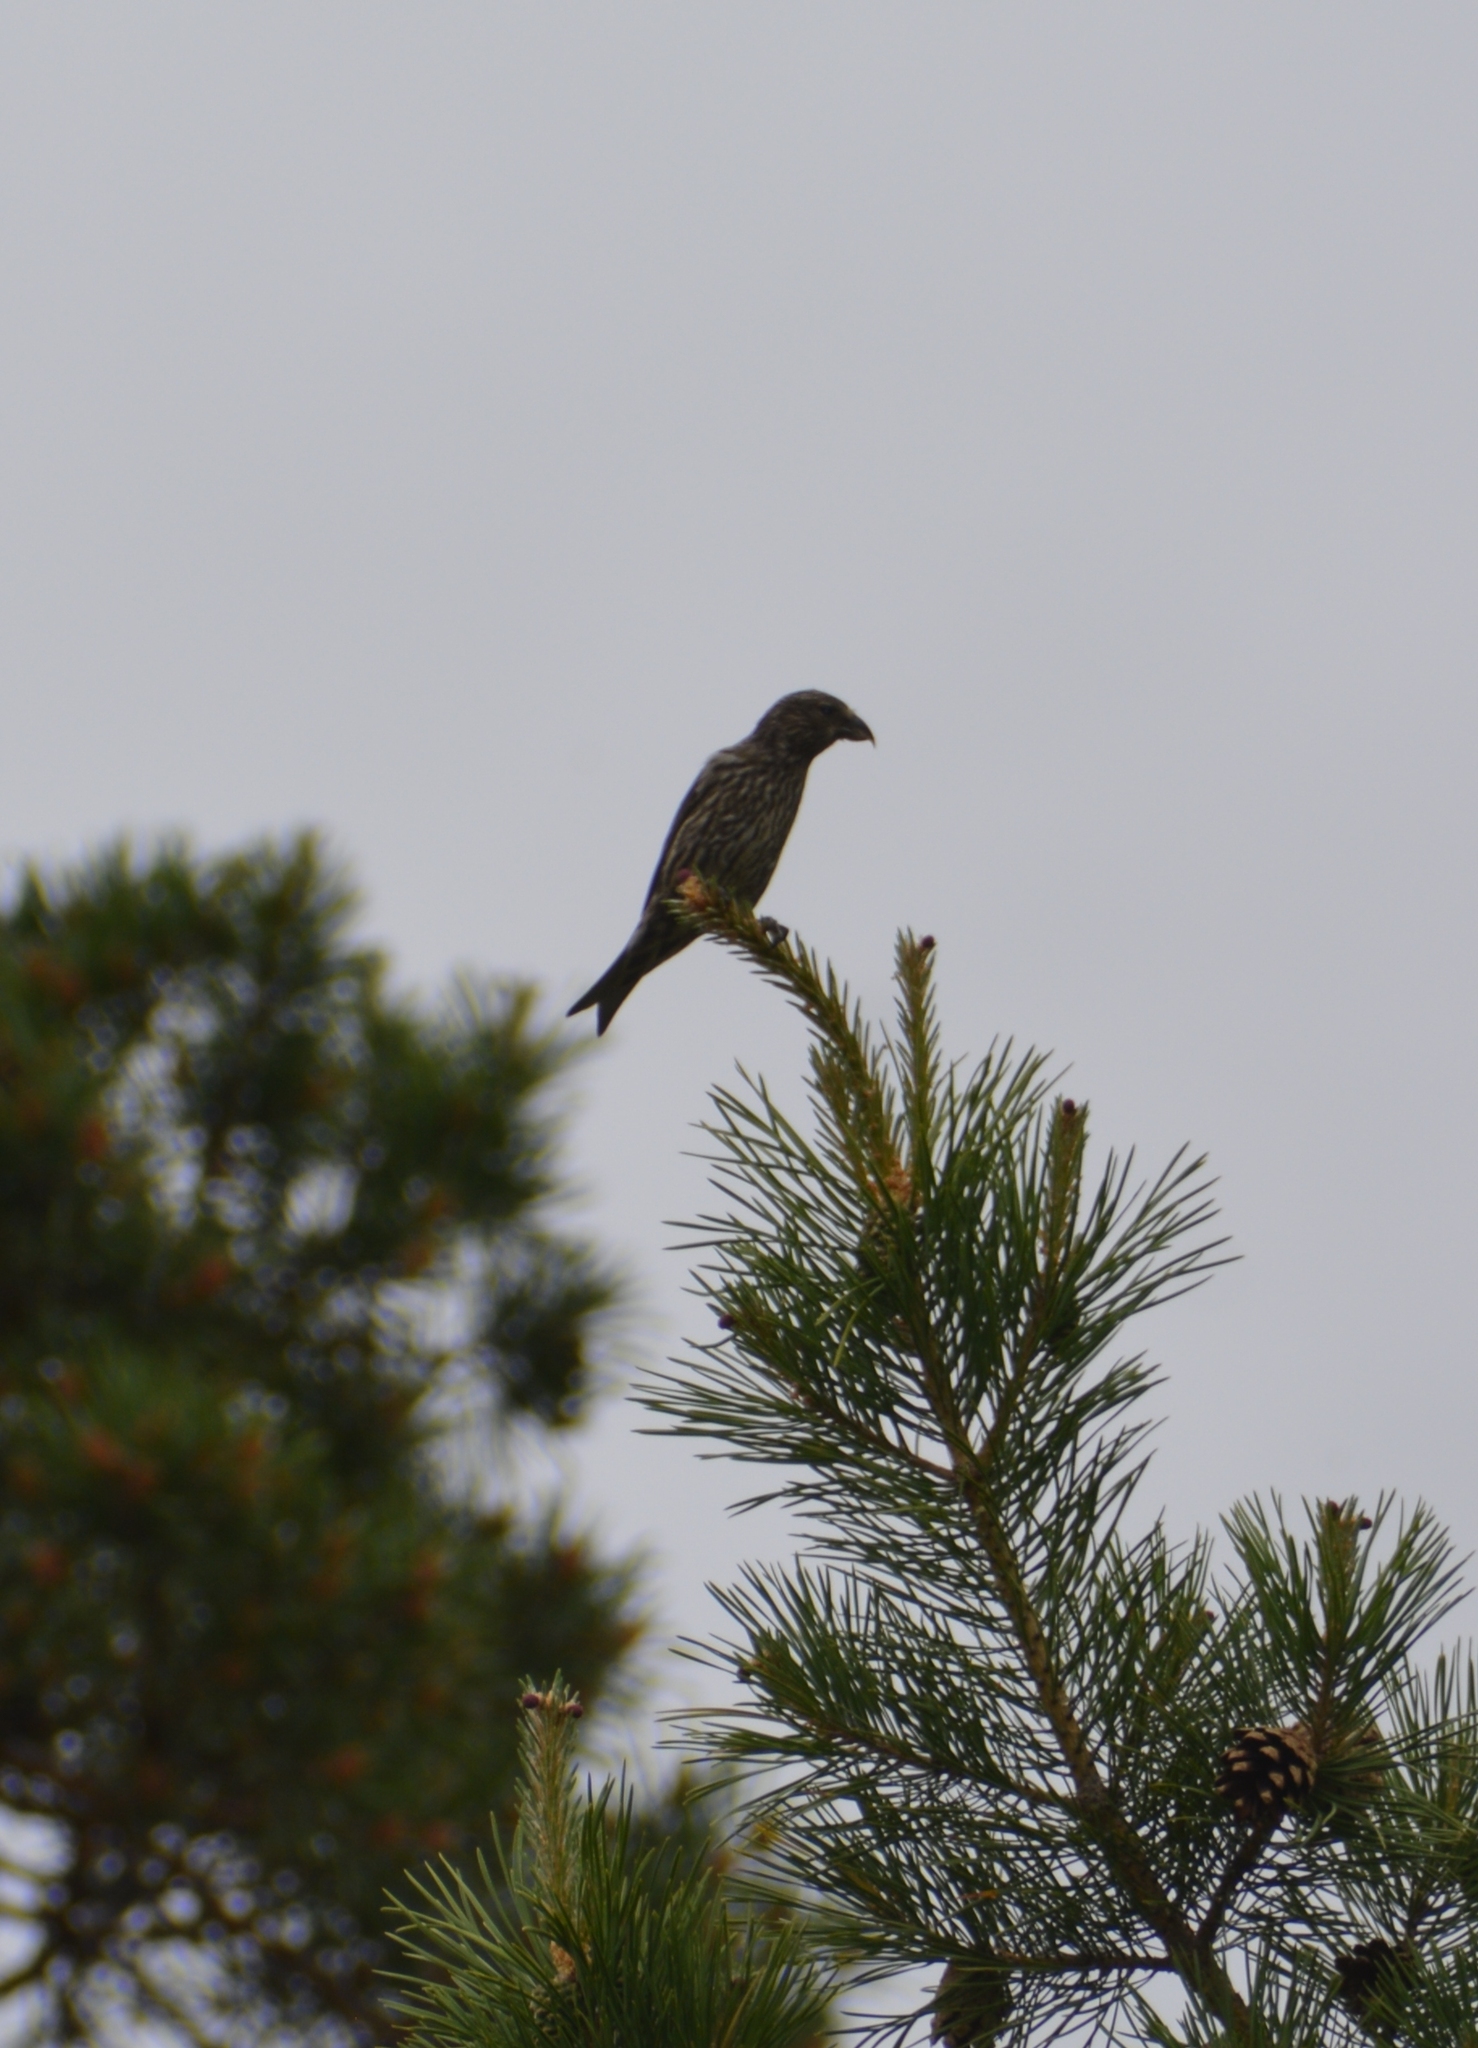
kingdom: Animalia
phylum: Chordata
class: Aves
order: Passeriformes
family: Fringillidae
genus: Loxia
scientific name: Loxia curvirostra
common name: Red crossbill
